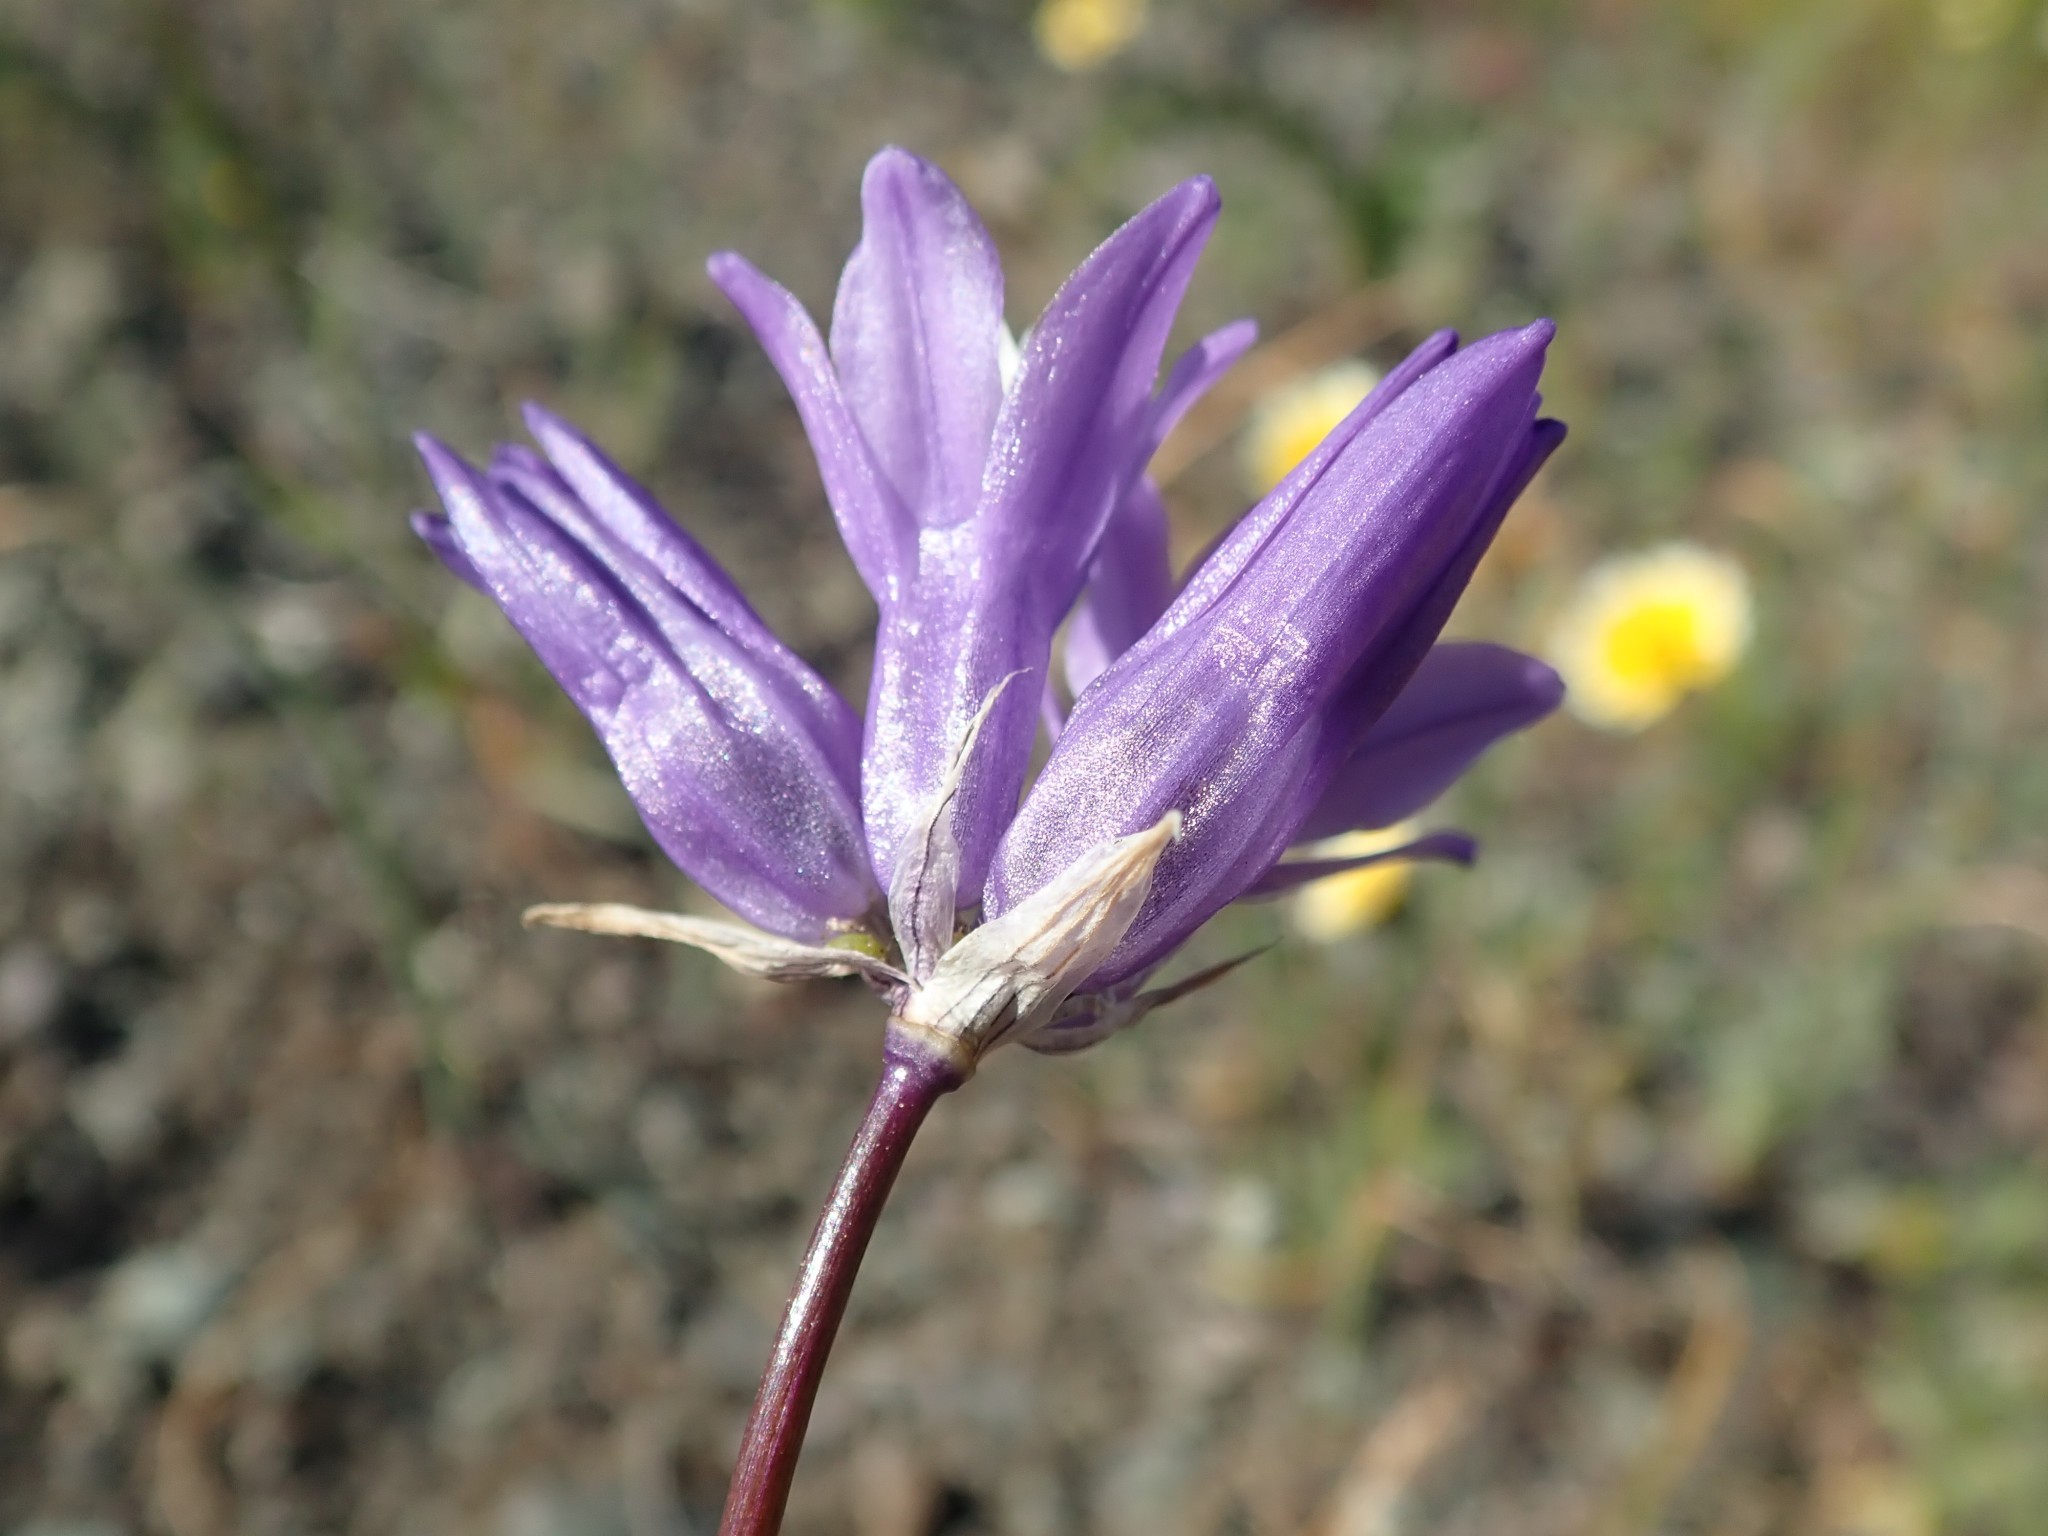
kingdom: Plantae
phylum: Tracheophyta
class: Liliopsida
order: Asparagales
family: Asparagaceae
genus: Dipterostemon
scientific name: Dipterostemon capitatus
